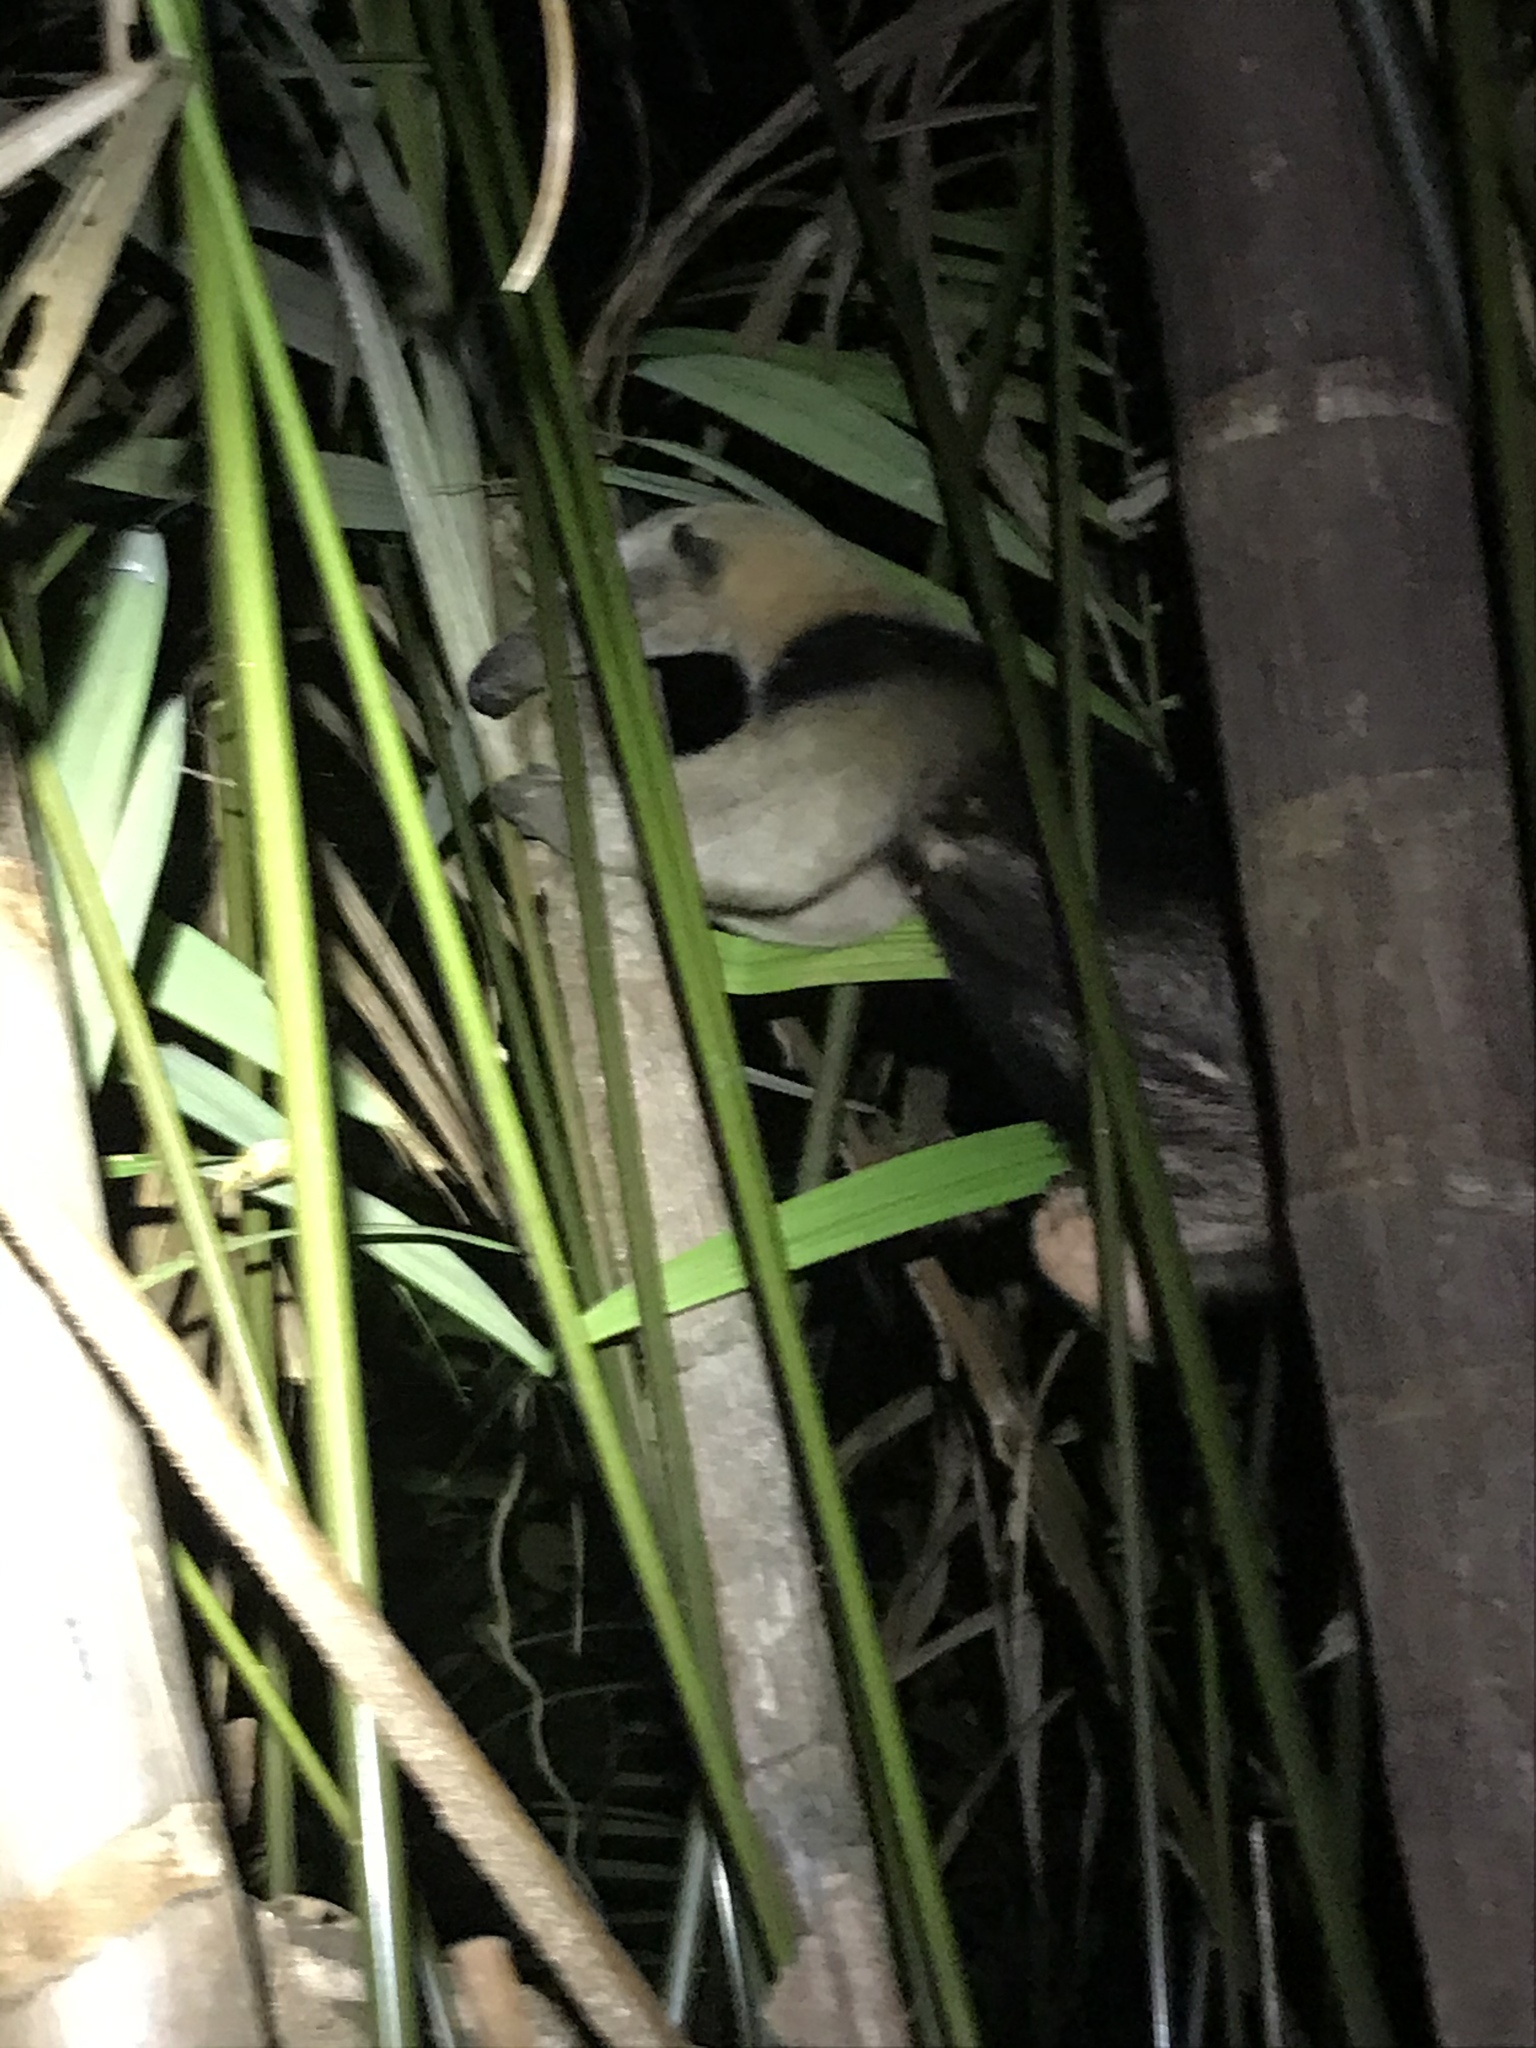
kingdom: Animalia
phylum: Chordata
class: Mammalia
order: Pilosa
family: Myrmecophagidae
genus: Tamandua
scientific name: Tamandua mexicana
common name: Northern tamandua
